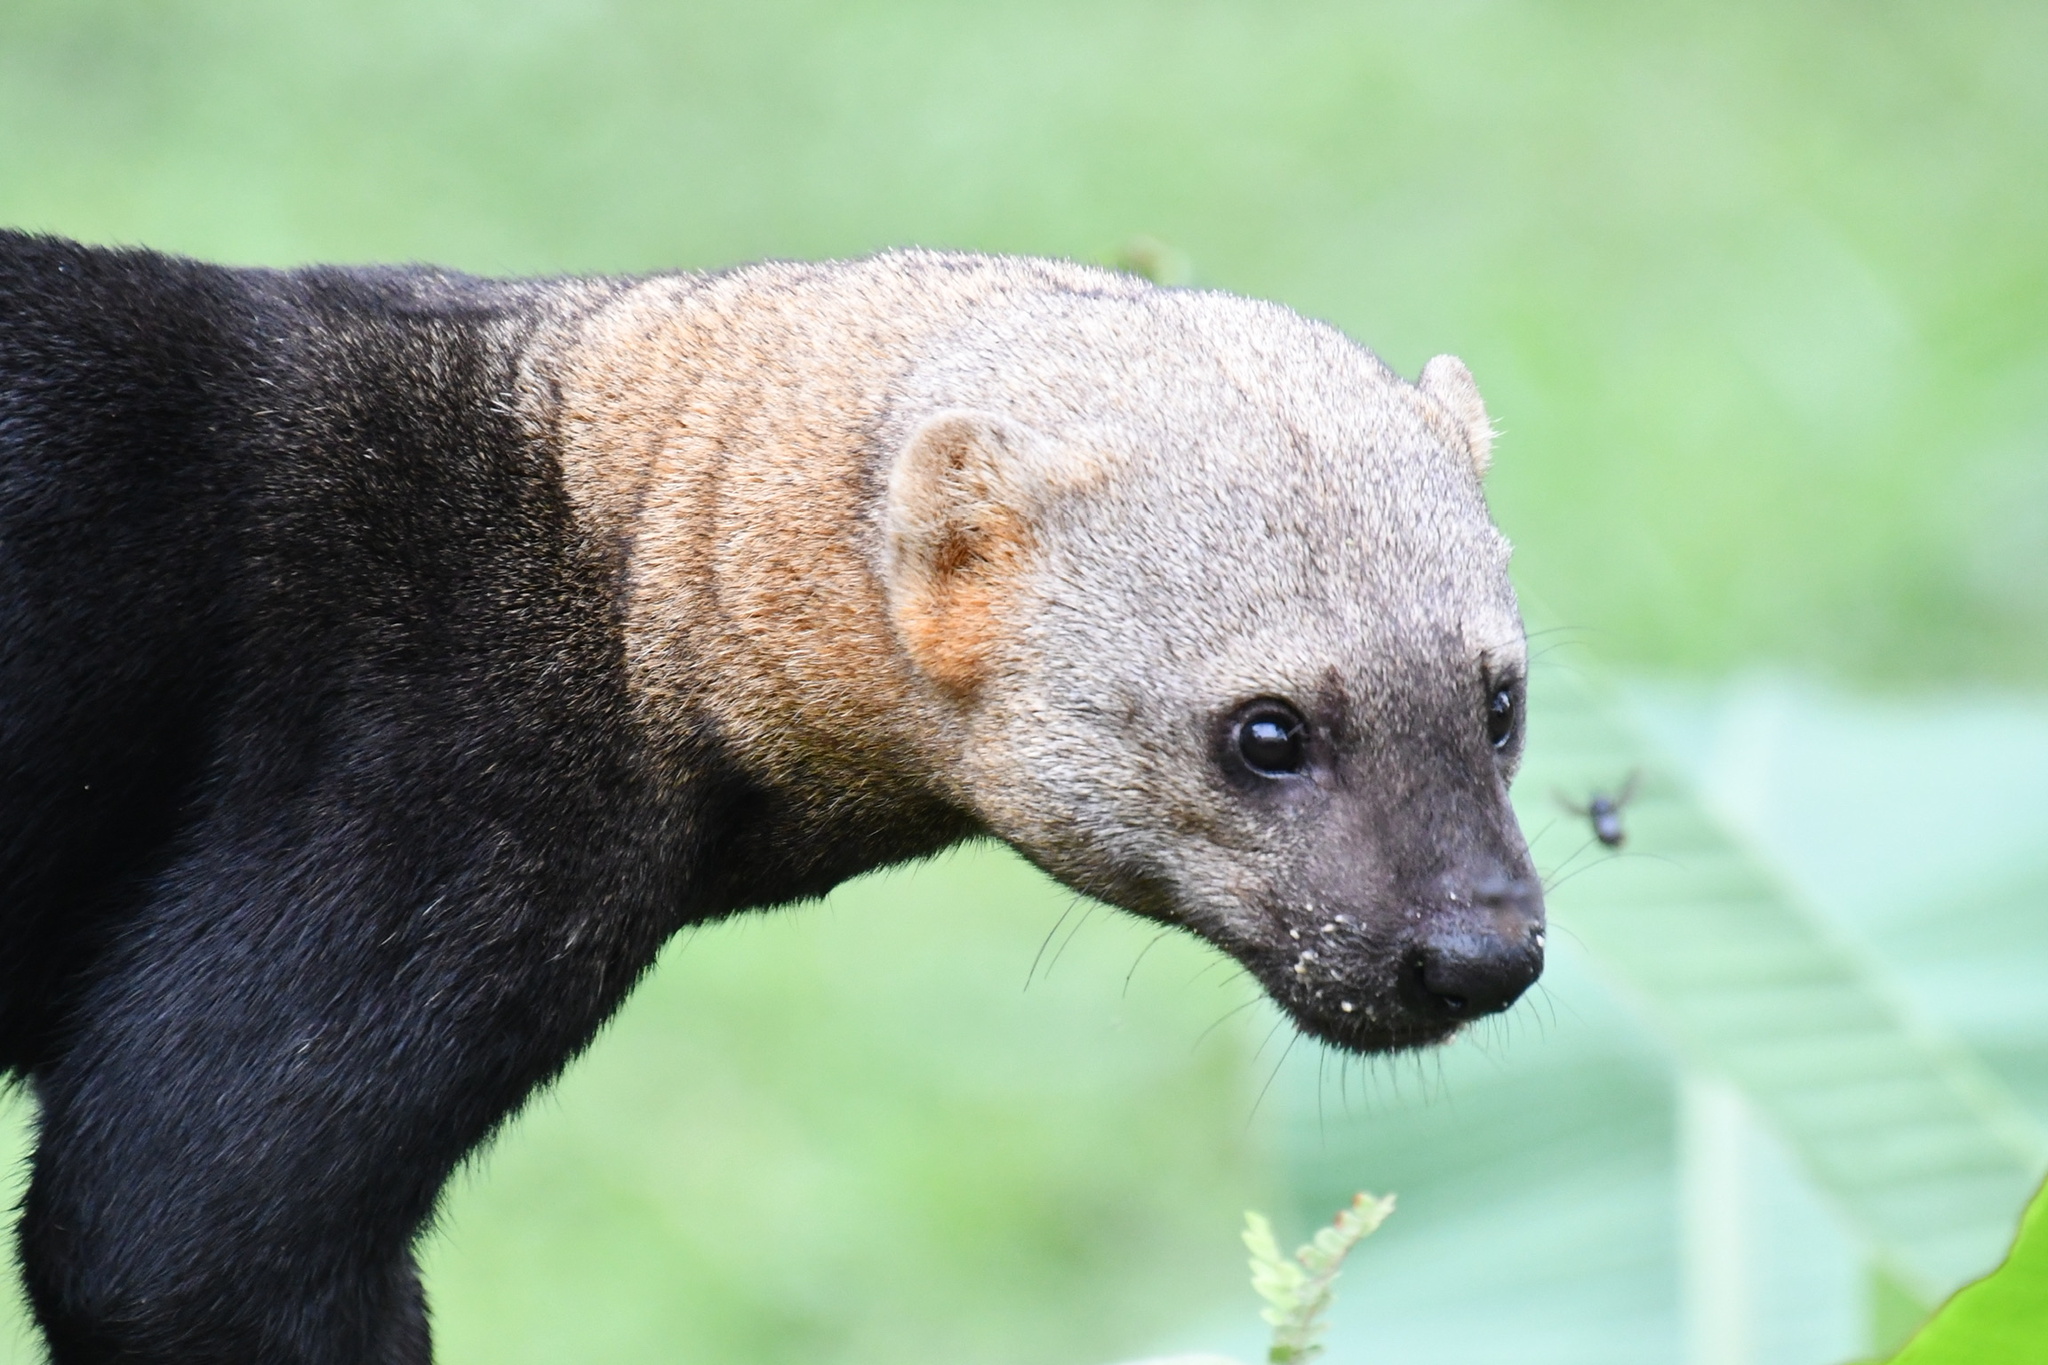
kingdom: Animalia
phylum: Chordata
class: Mammalia
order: Carnivora
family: Mustelidae
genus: Eira
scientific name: Eira barbara
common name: Tayra
